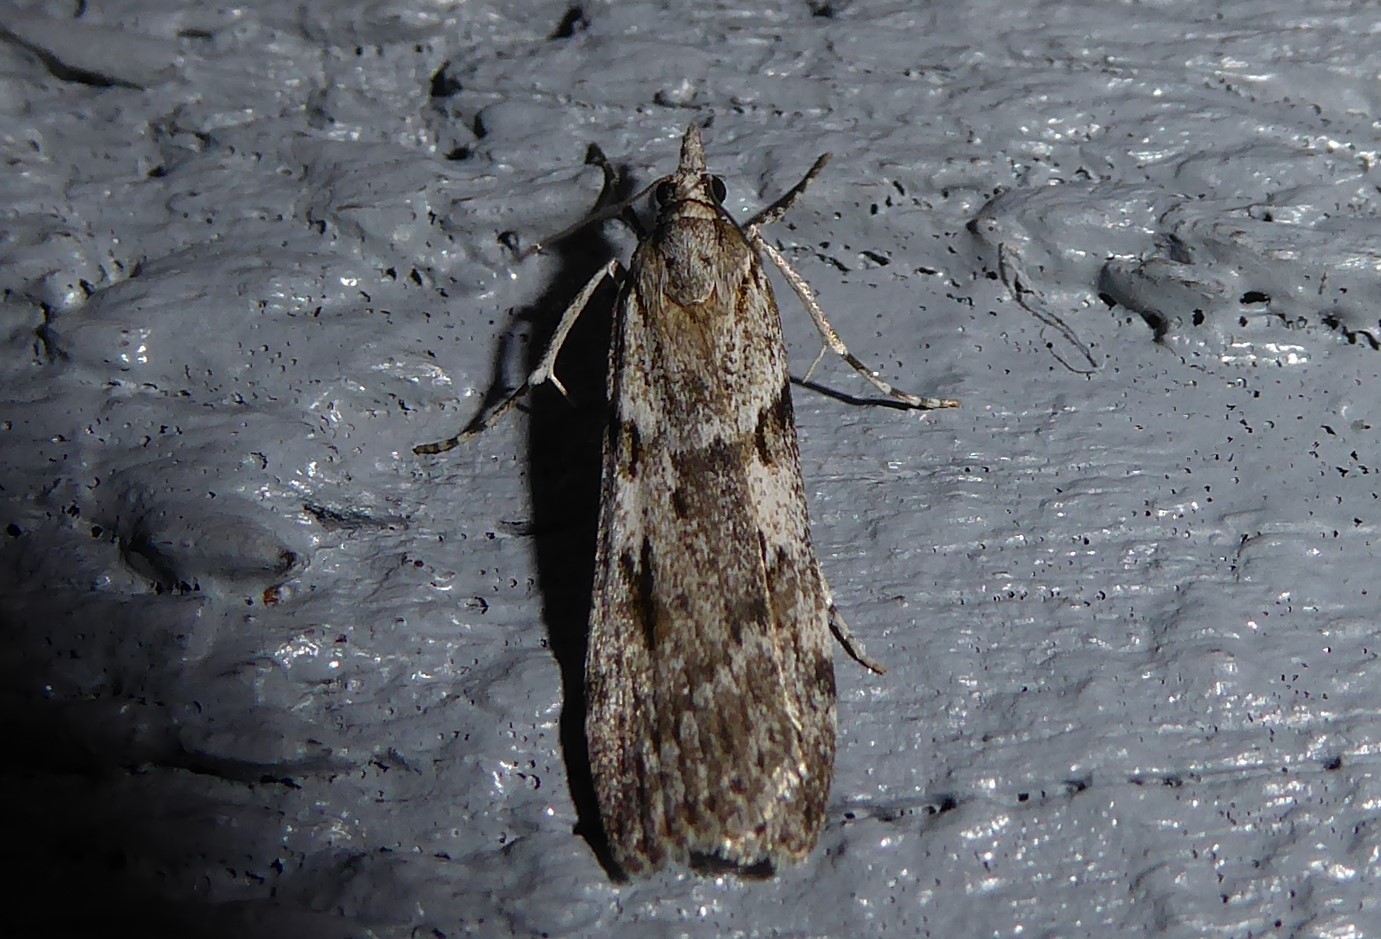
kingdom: Animalia
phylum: Arthropoda
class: Insecta
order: Lepidoptera
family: Crambidae
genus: Scoparia
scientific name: Scoparia halopis
